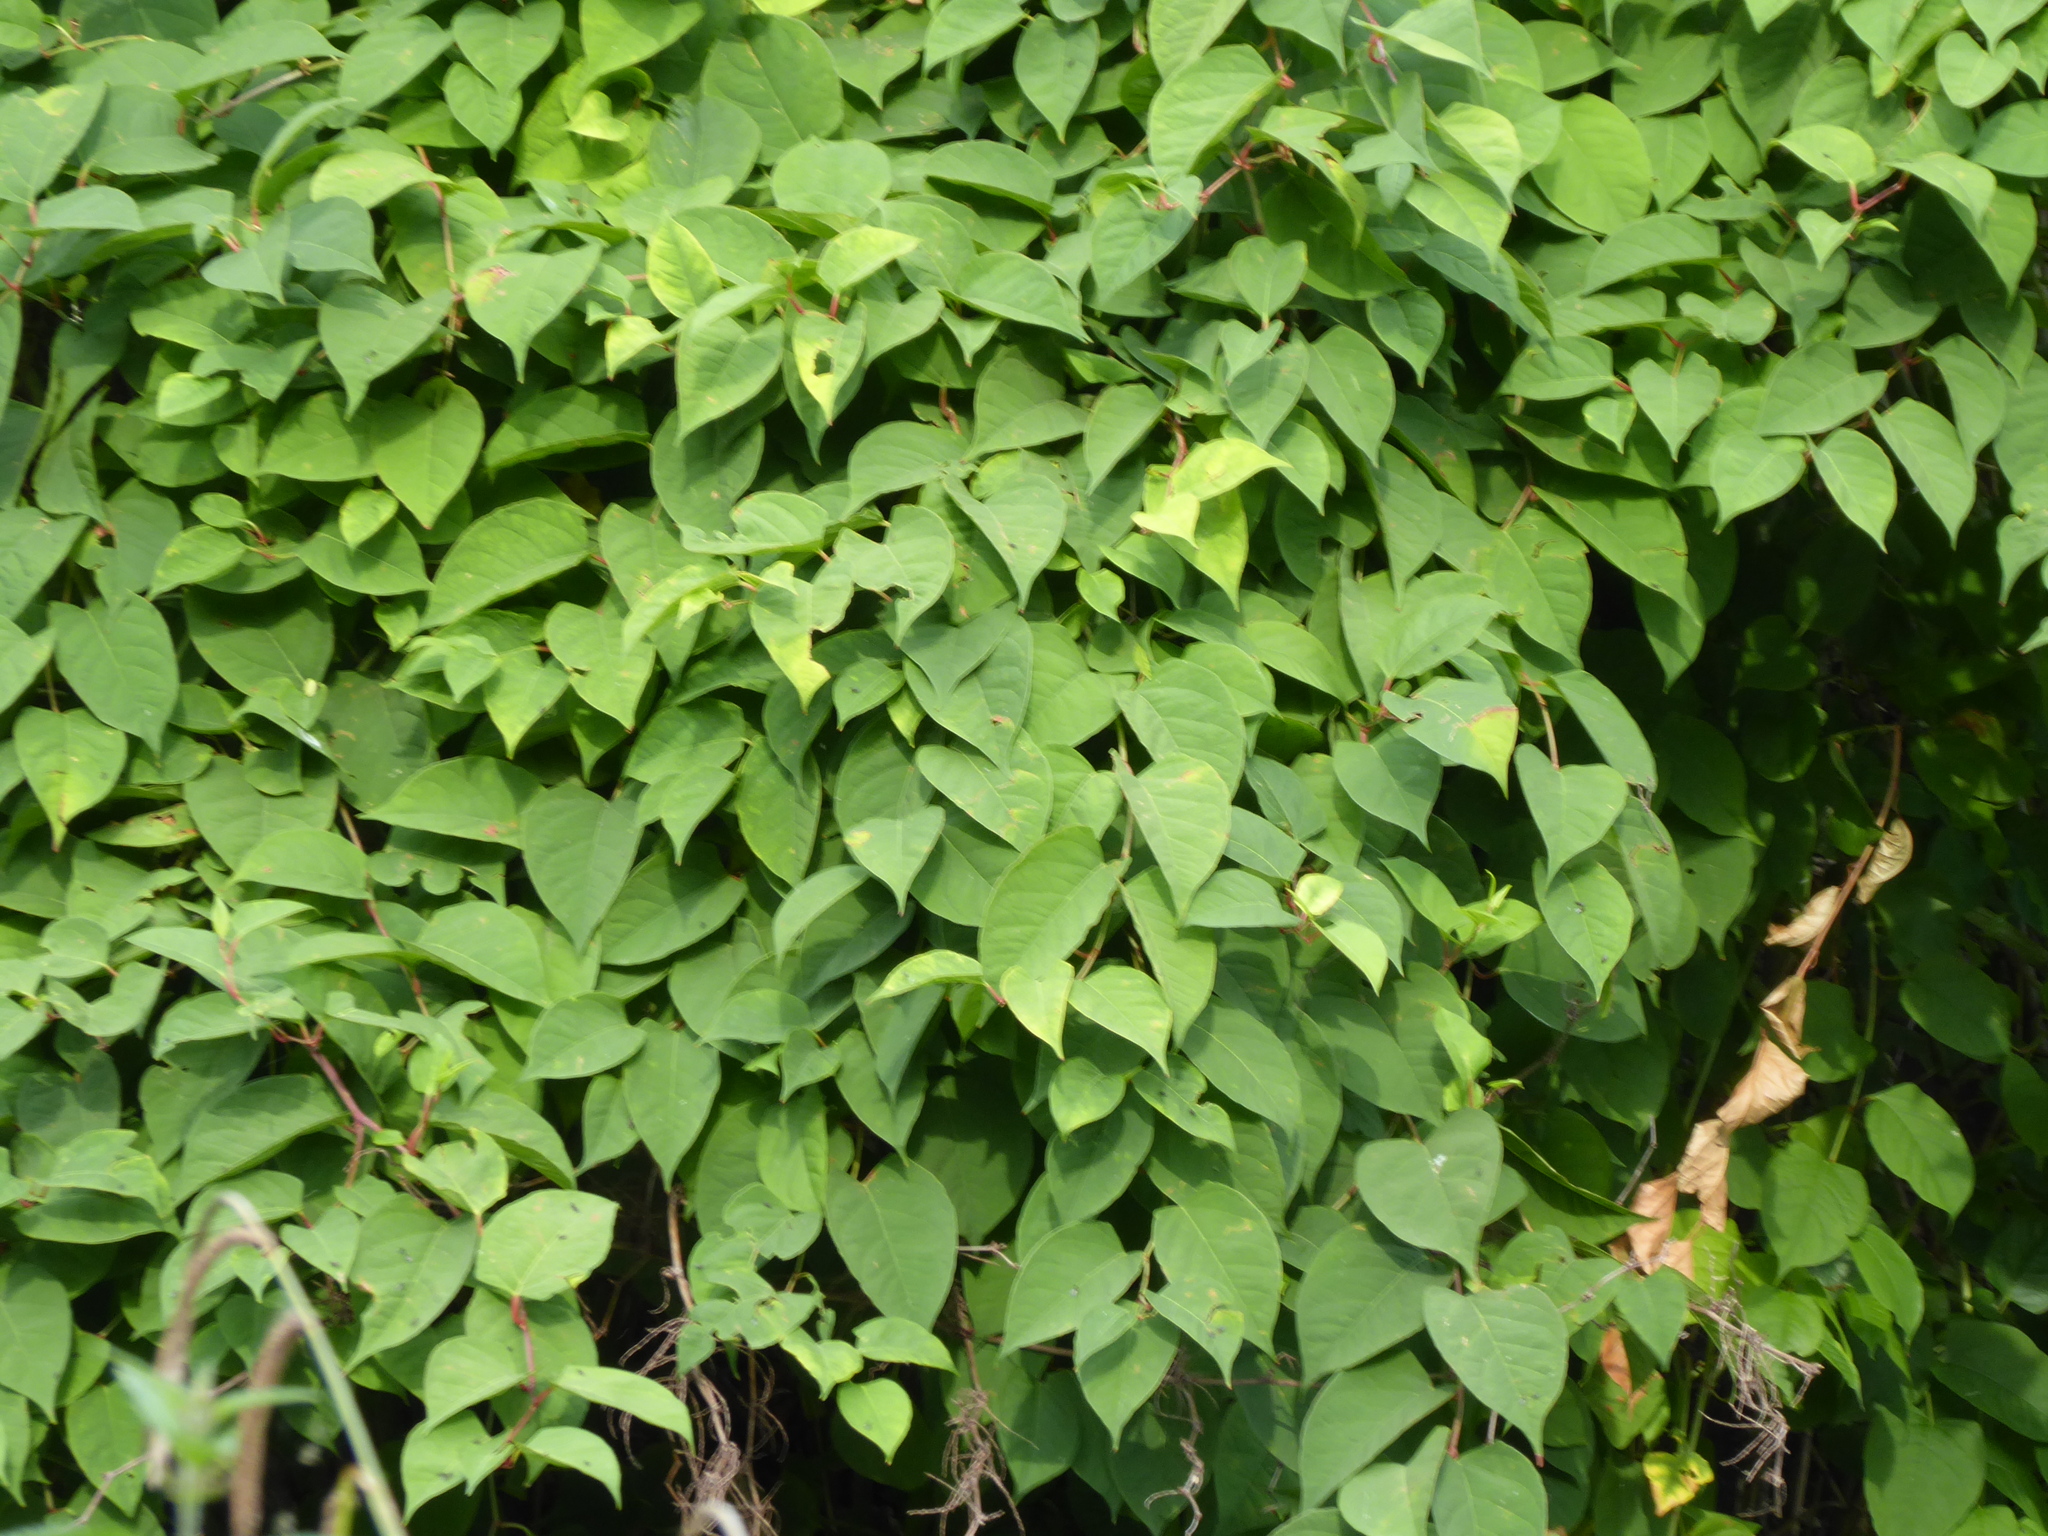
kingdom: Plantae
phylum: Tracheophyta
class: Magnoliopsida
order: Caryophyllales
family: Polygonaceae
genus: Reynoutria
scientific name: Reynoutria japonica
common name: Japanese knotweed
